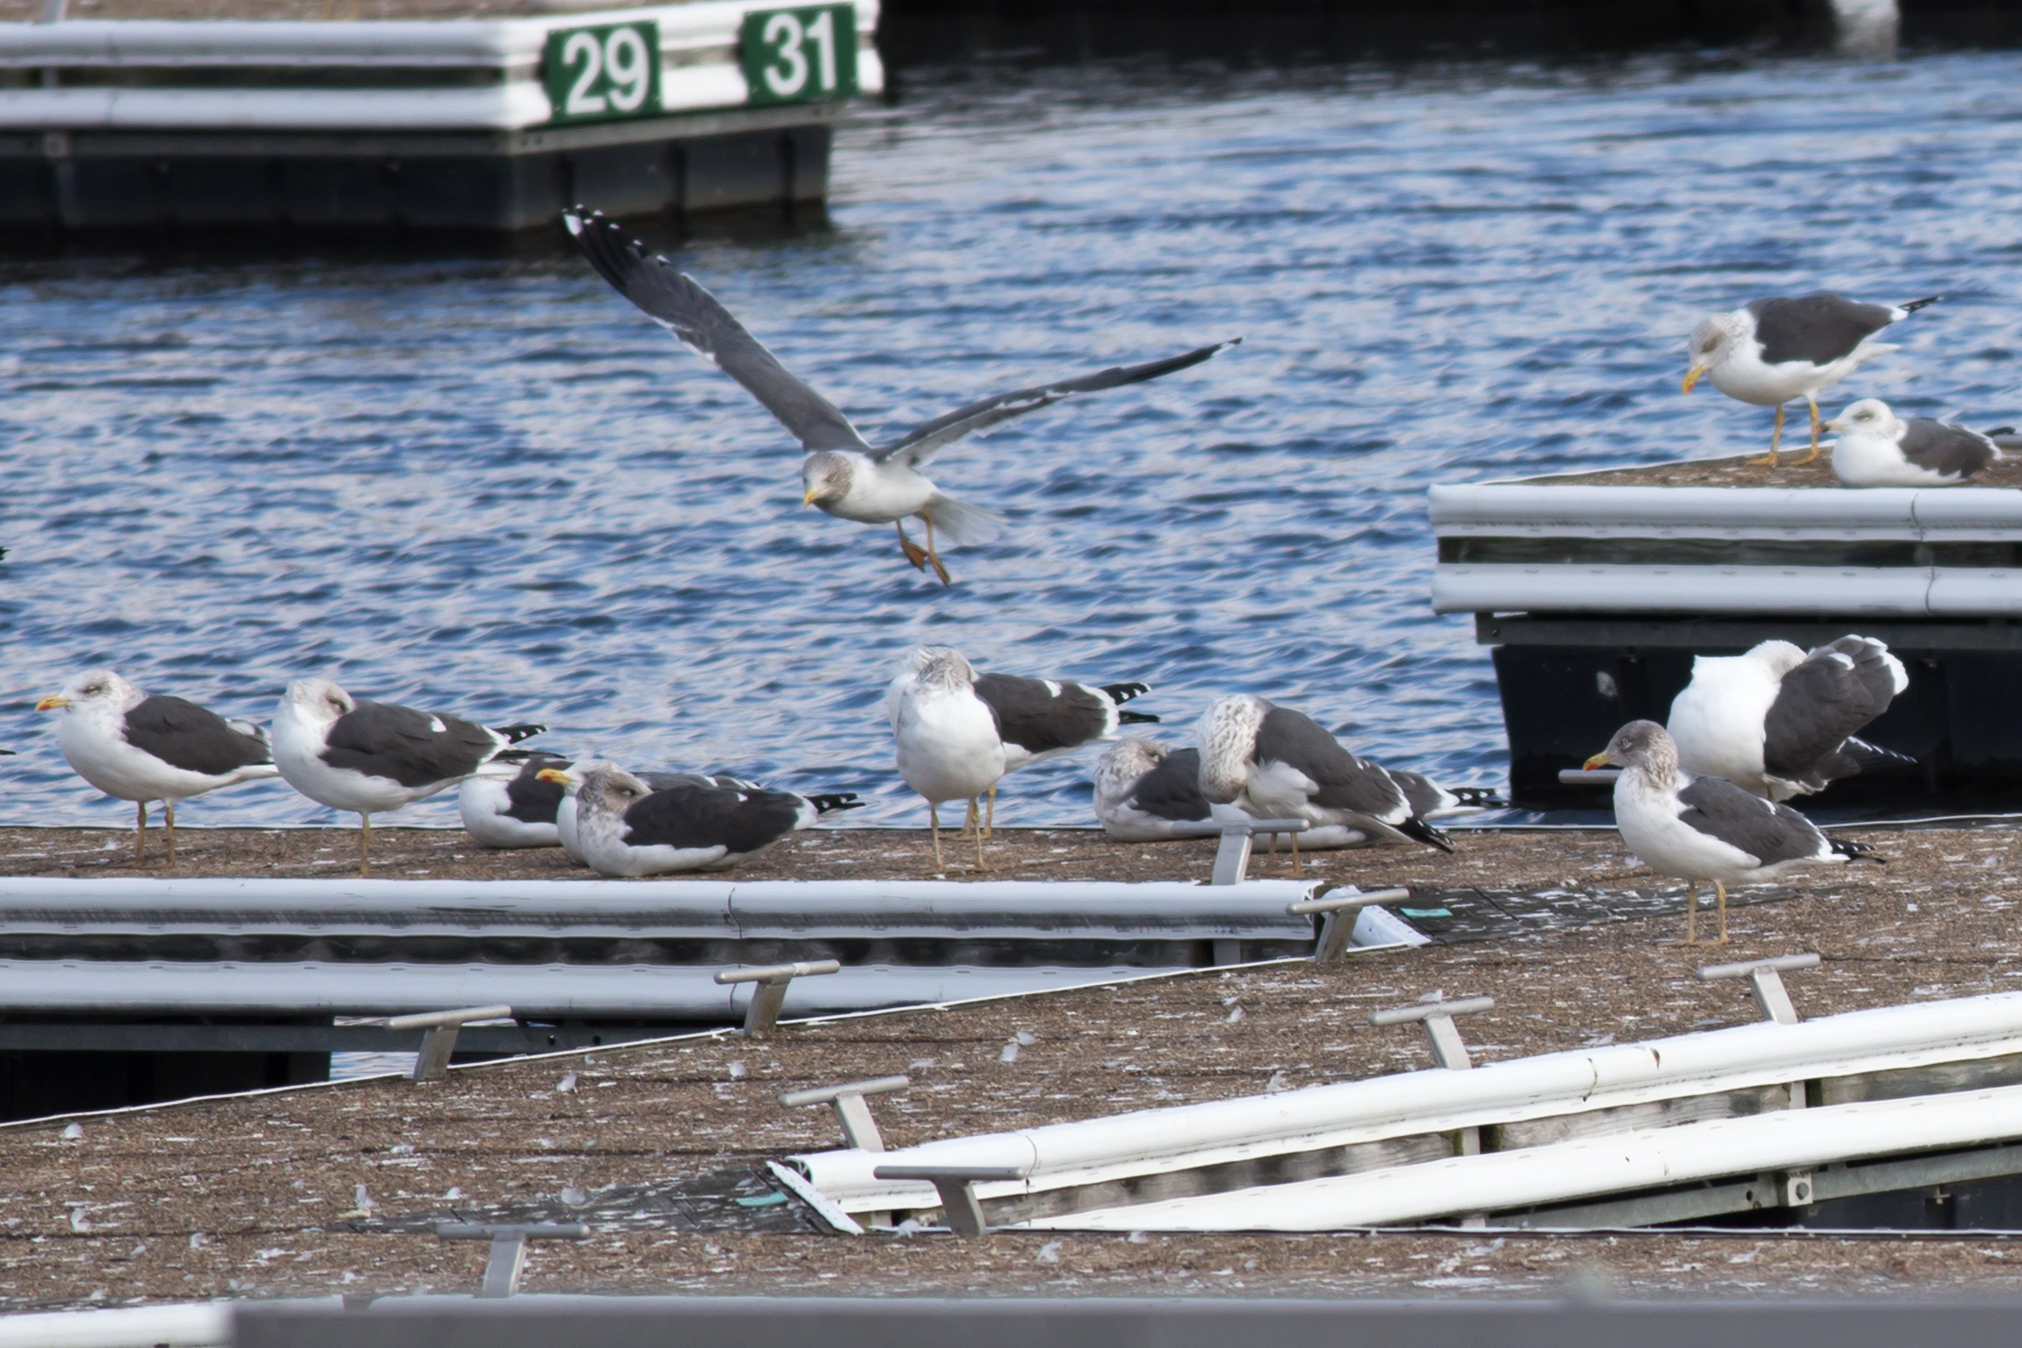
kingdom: Animalia
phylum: Chordata
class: Aves
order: Charadriiformes
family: Laridae
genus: Larus
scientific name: Larus fuscus
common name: Lesser black-backed gull
